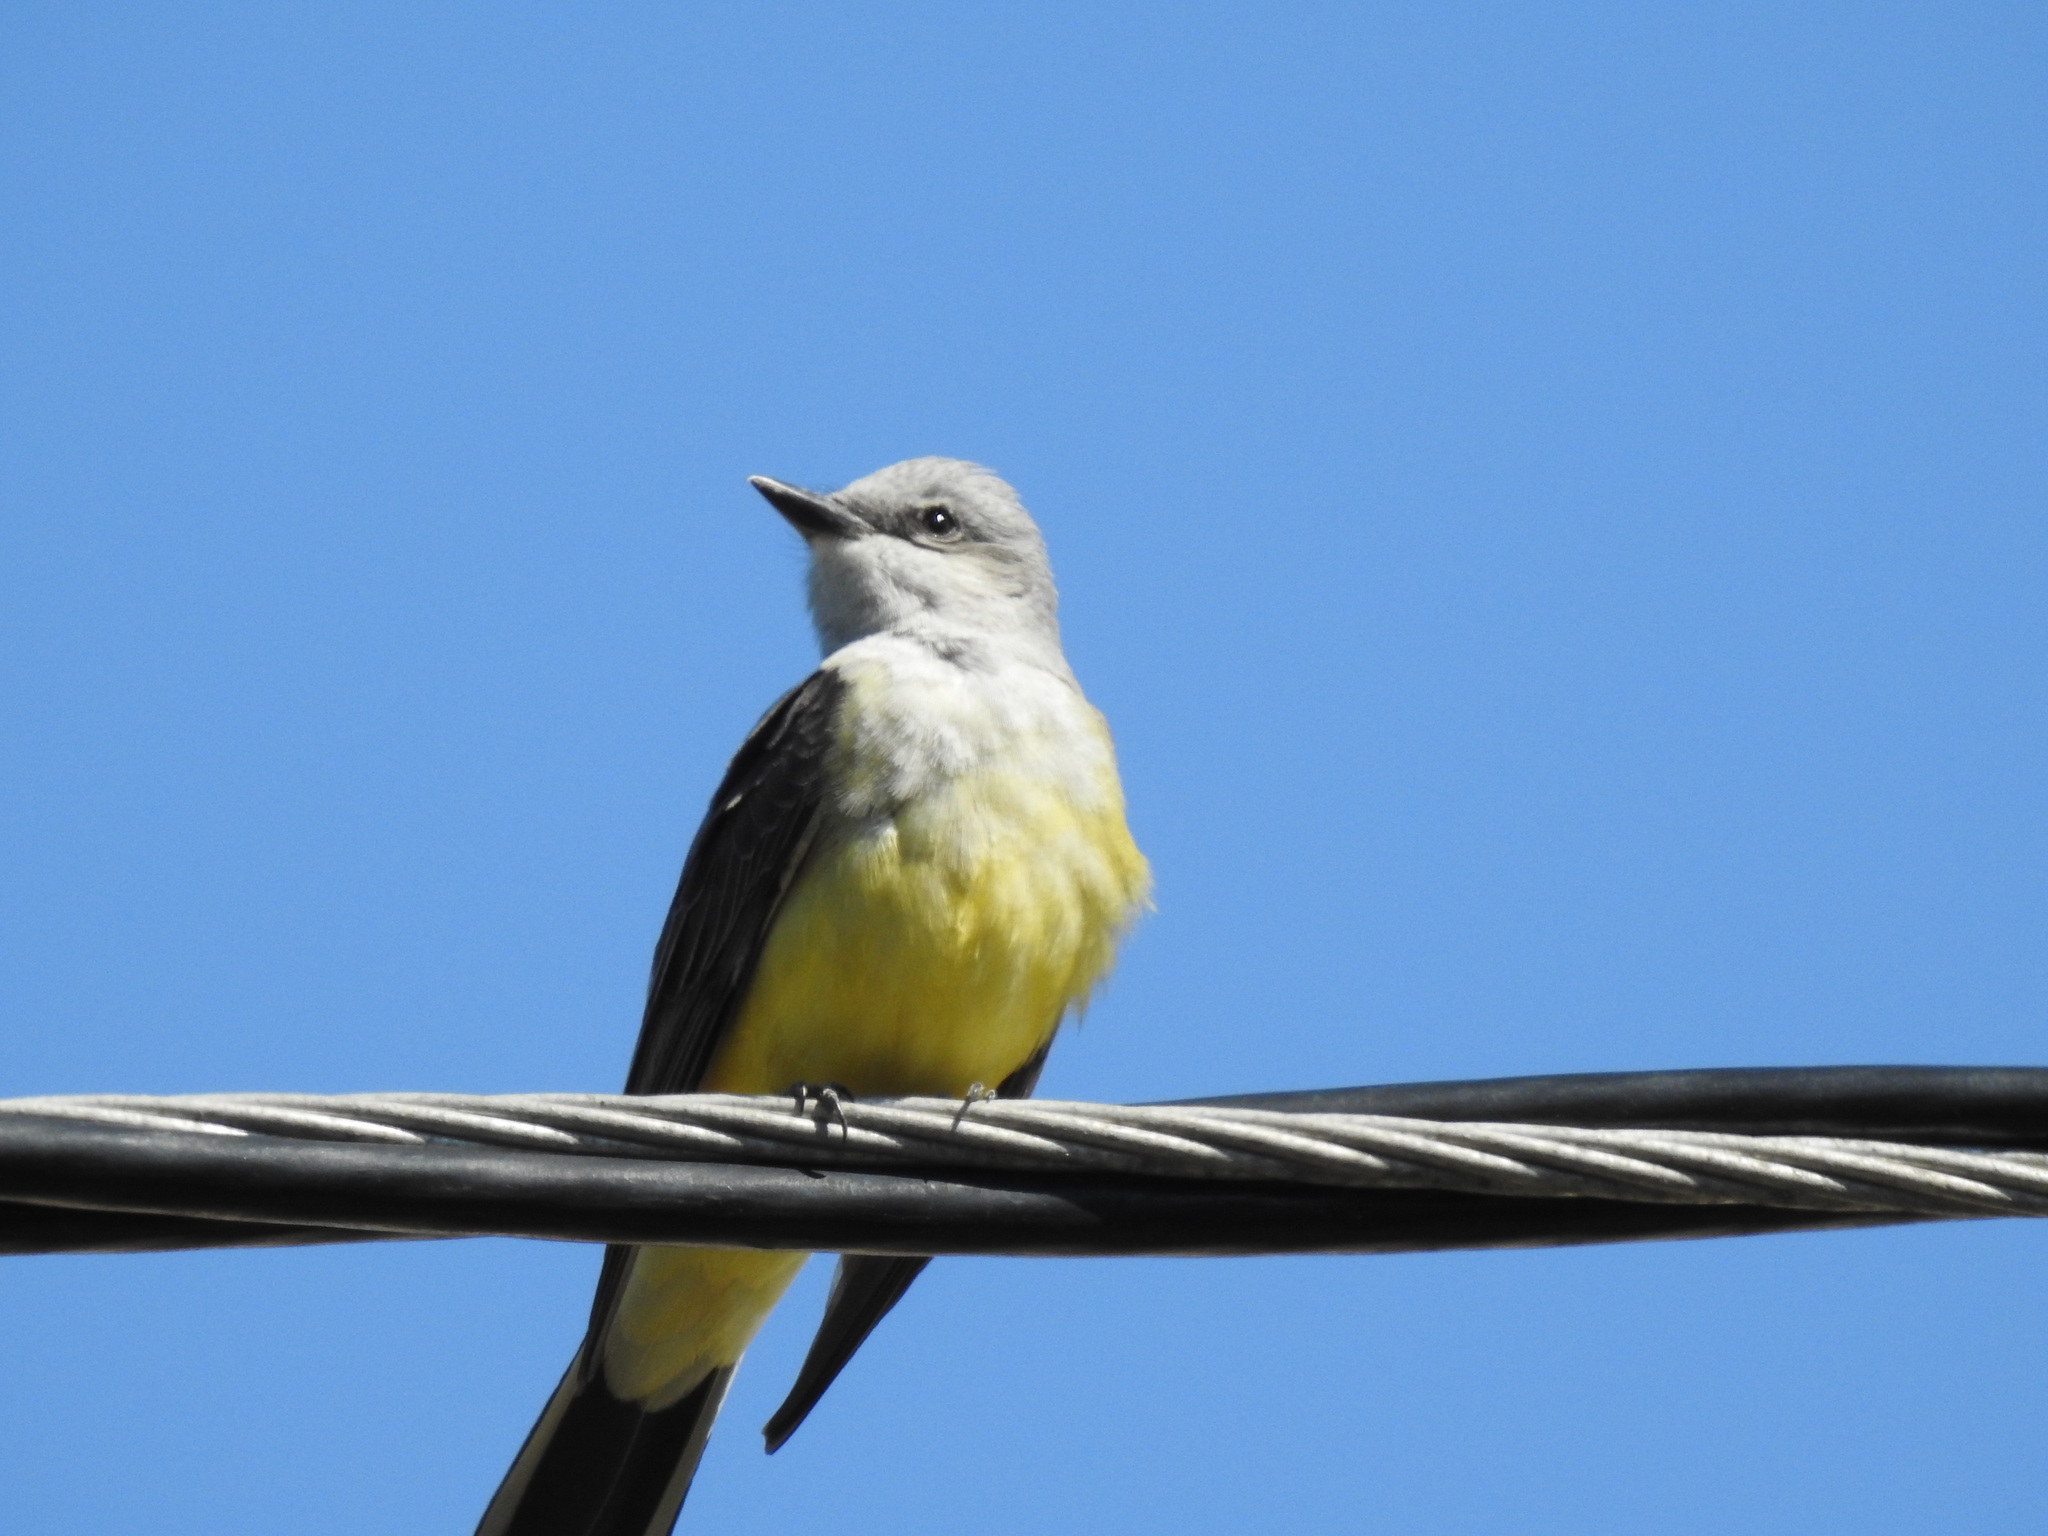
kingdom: Animalia
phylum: Chordata
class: Aves
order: Passeriformes
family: Tyrannidae
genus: Tyrannus
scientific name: Tyrannus verticalis
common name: Western kingbird
